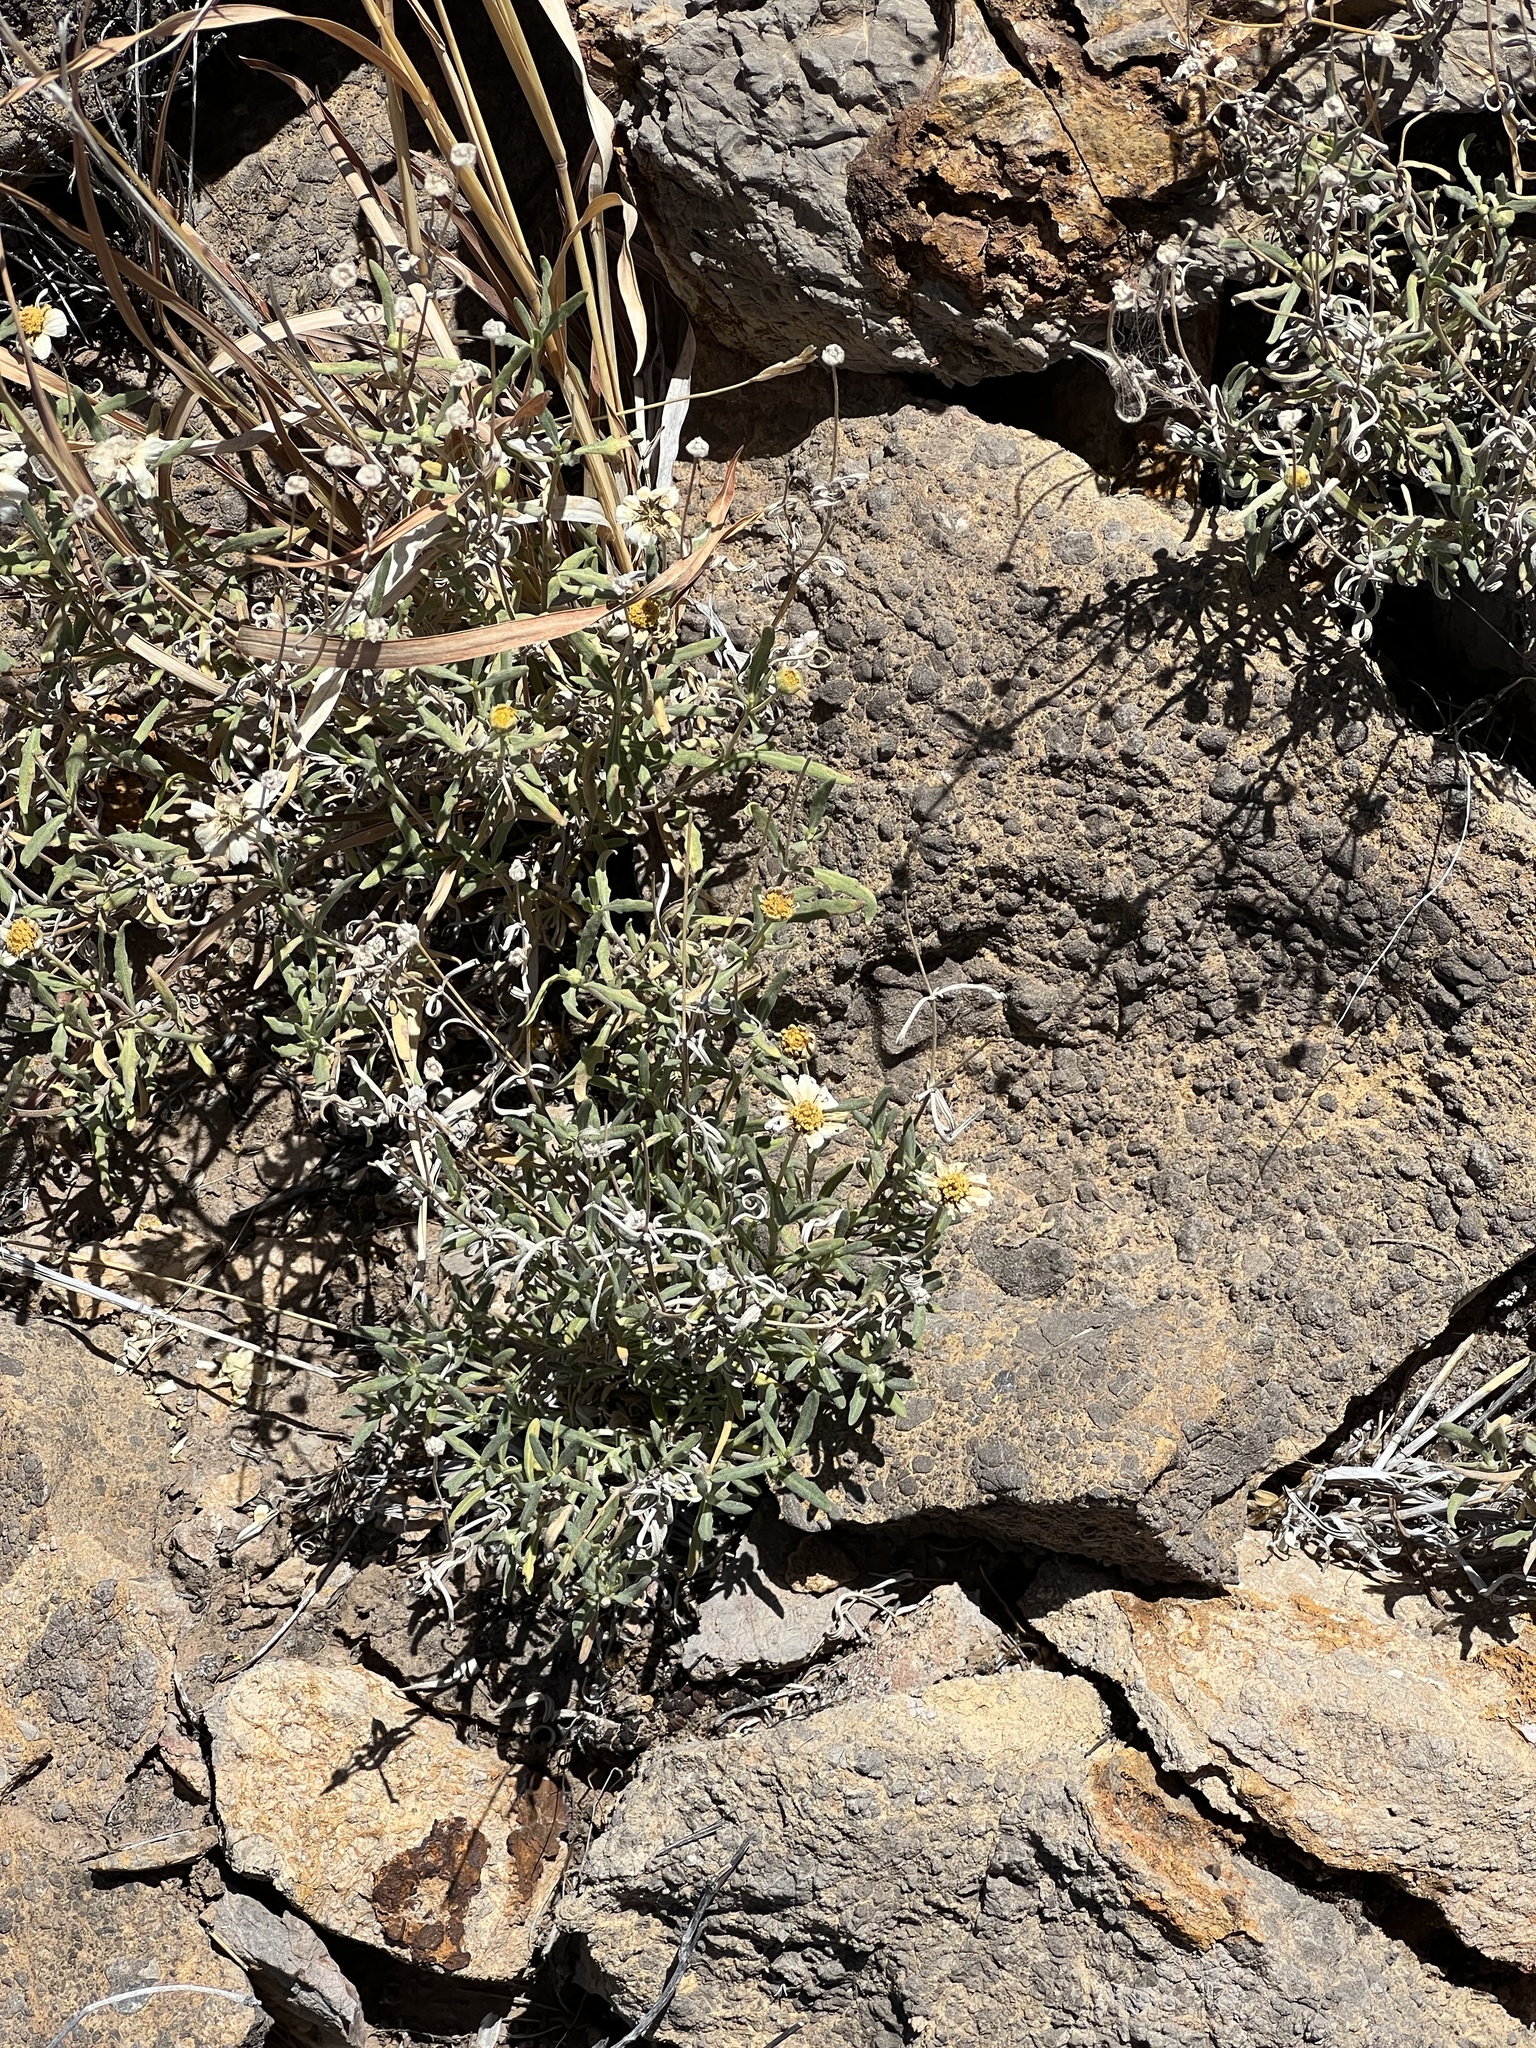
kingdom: Plantae
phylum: Tracheophyta
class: Magnoliopsida
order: Asterales
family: Asteraceae
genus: Melampodium
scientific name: Melampodium leucanthum
